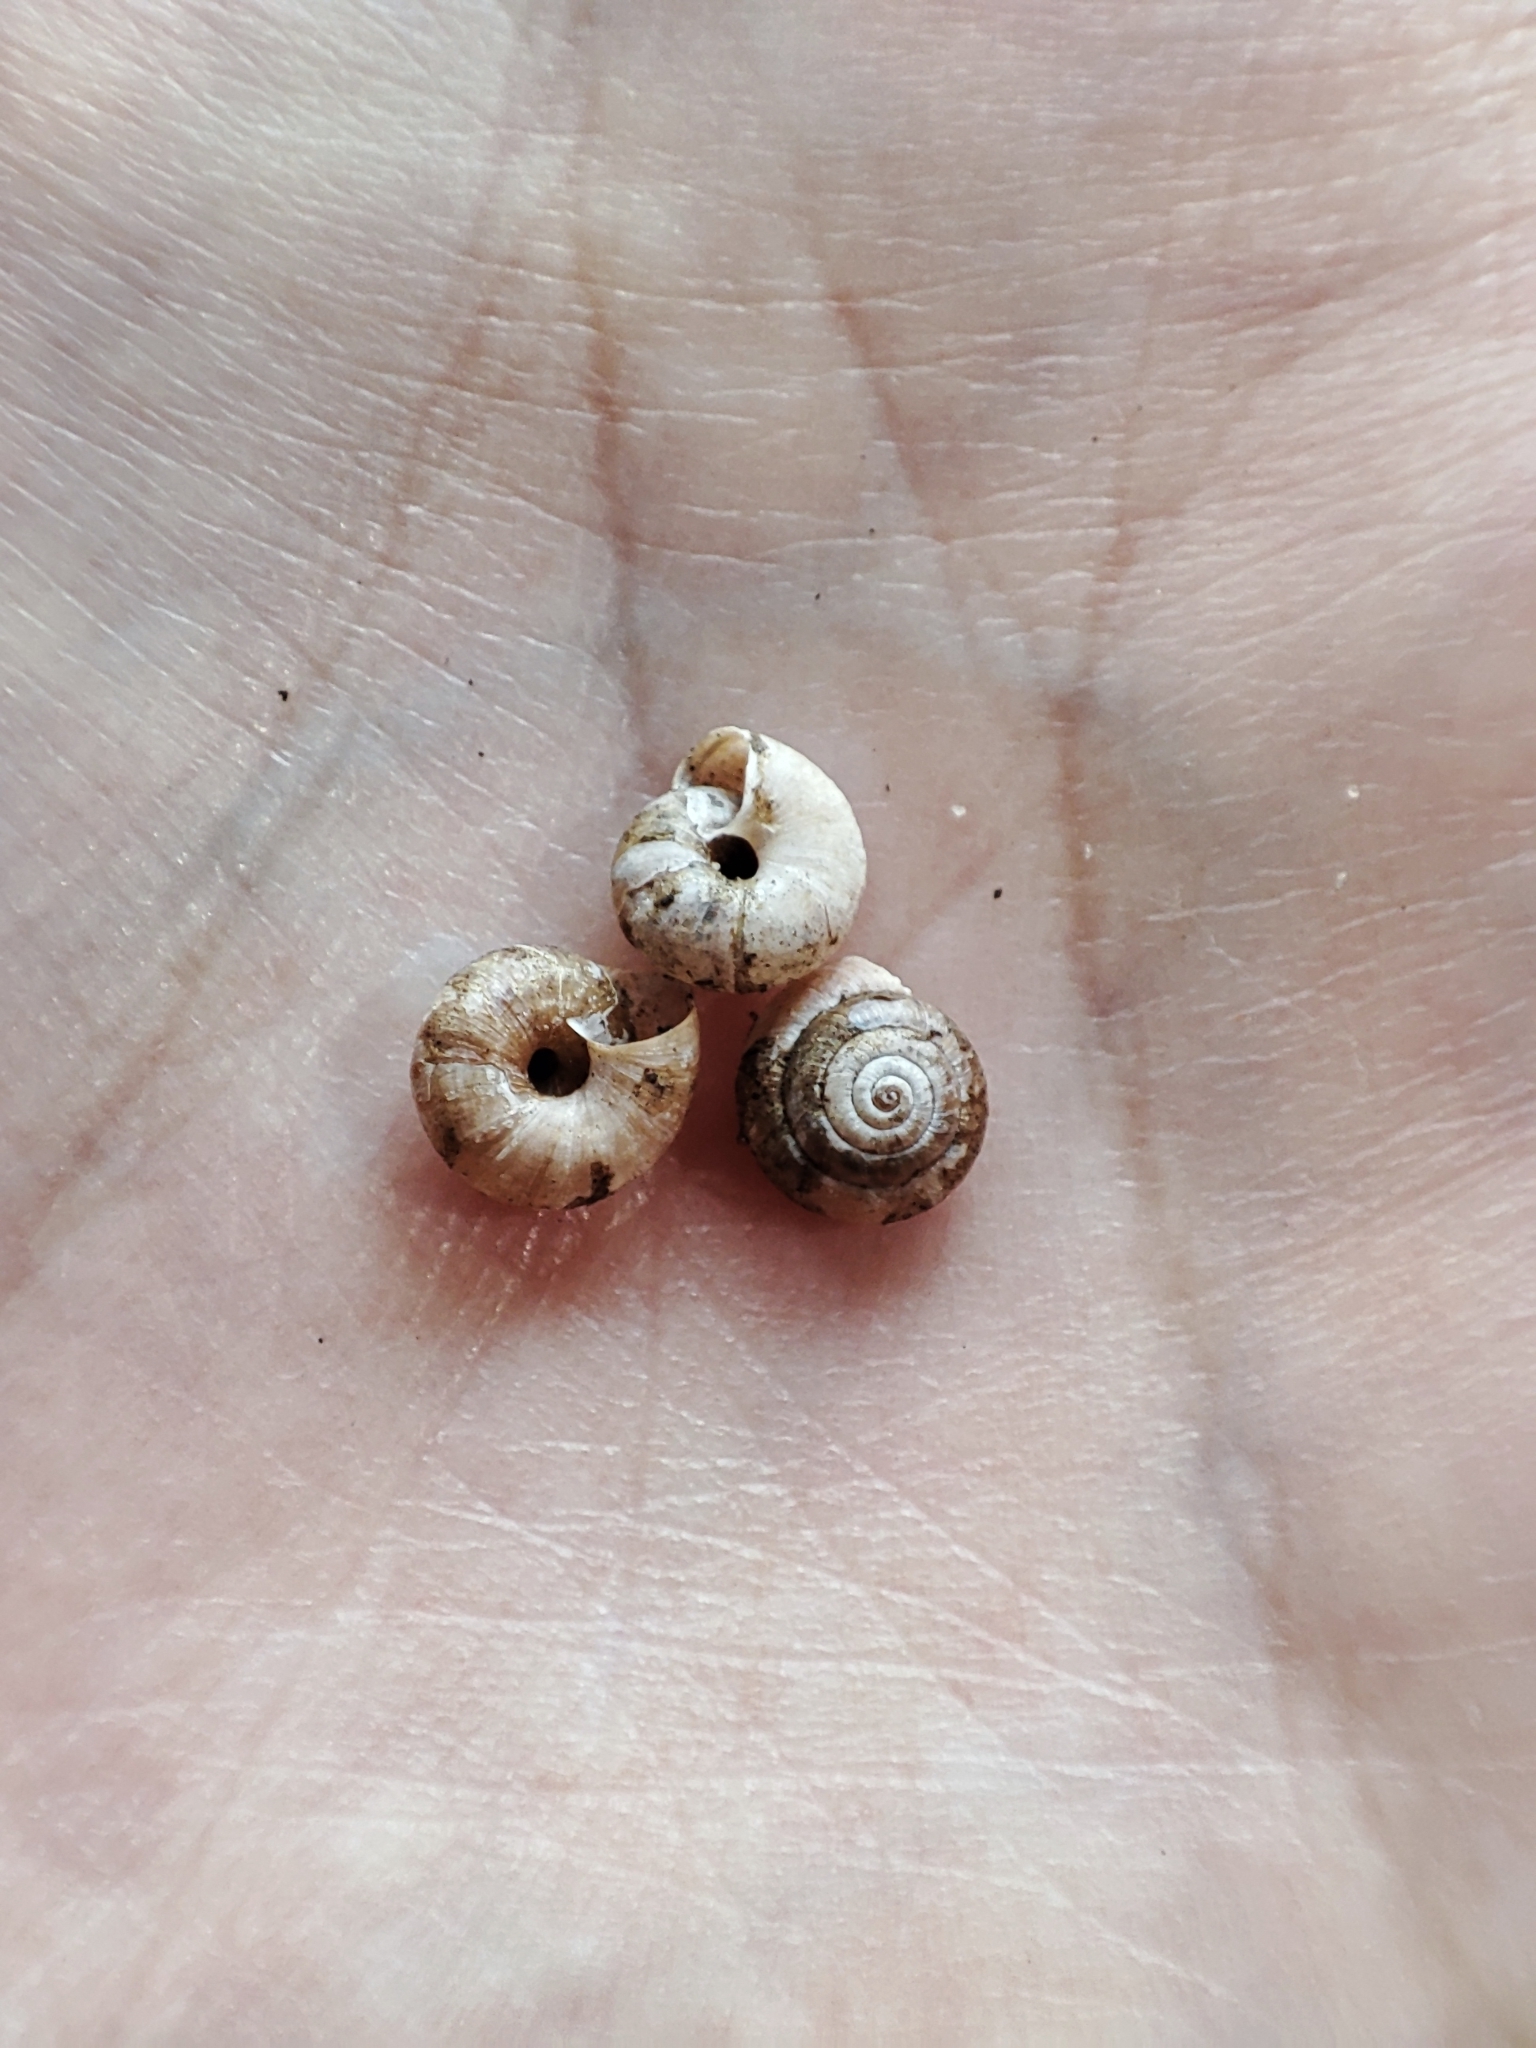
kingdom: Animalia
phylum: Mollusca
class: Gastropoda
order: Stylommatophora
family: Hygromiidae
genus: Trochulus
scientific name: Trochulus hispidus
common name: Hairy snail
